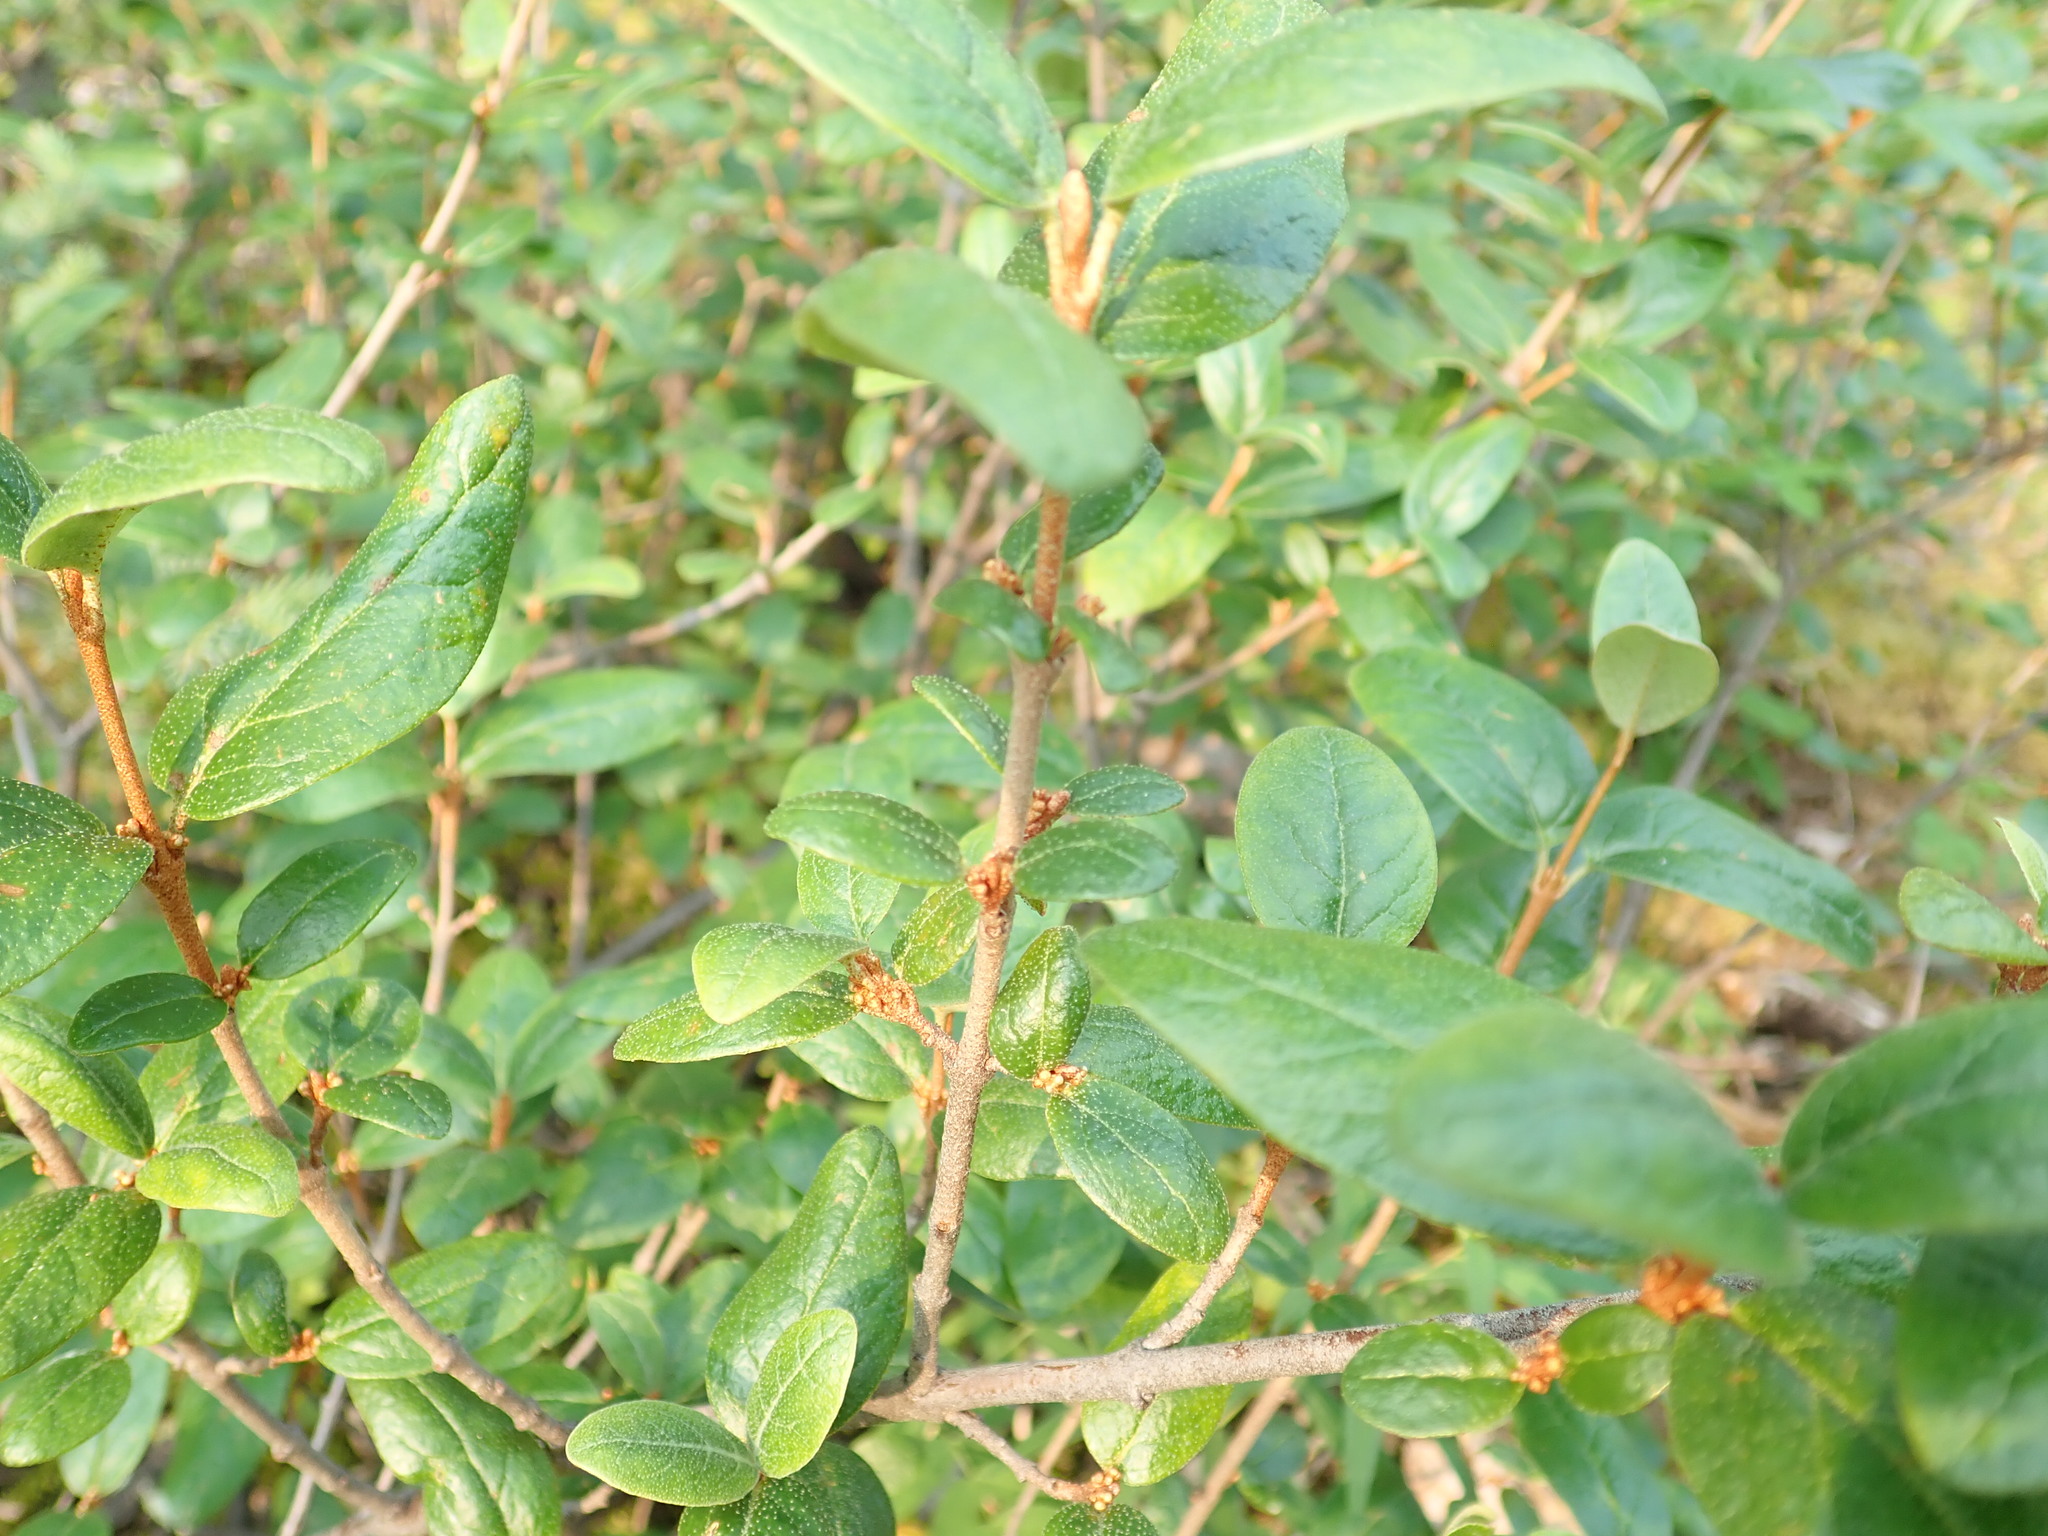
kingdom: Plantae
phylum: Tracheophyta
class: Magnoliopsida
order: Rosales
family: Elaeagnaceae
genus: Shepherdia
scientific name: Shepherdia canadensis
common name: Soapberry
